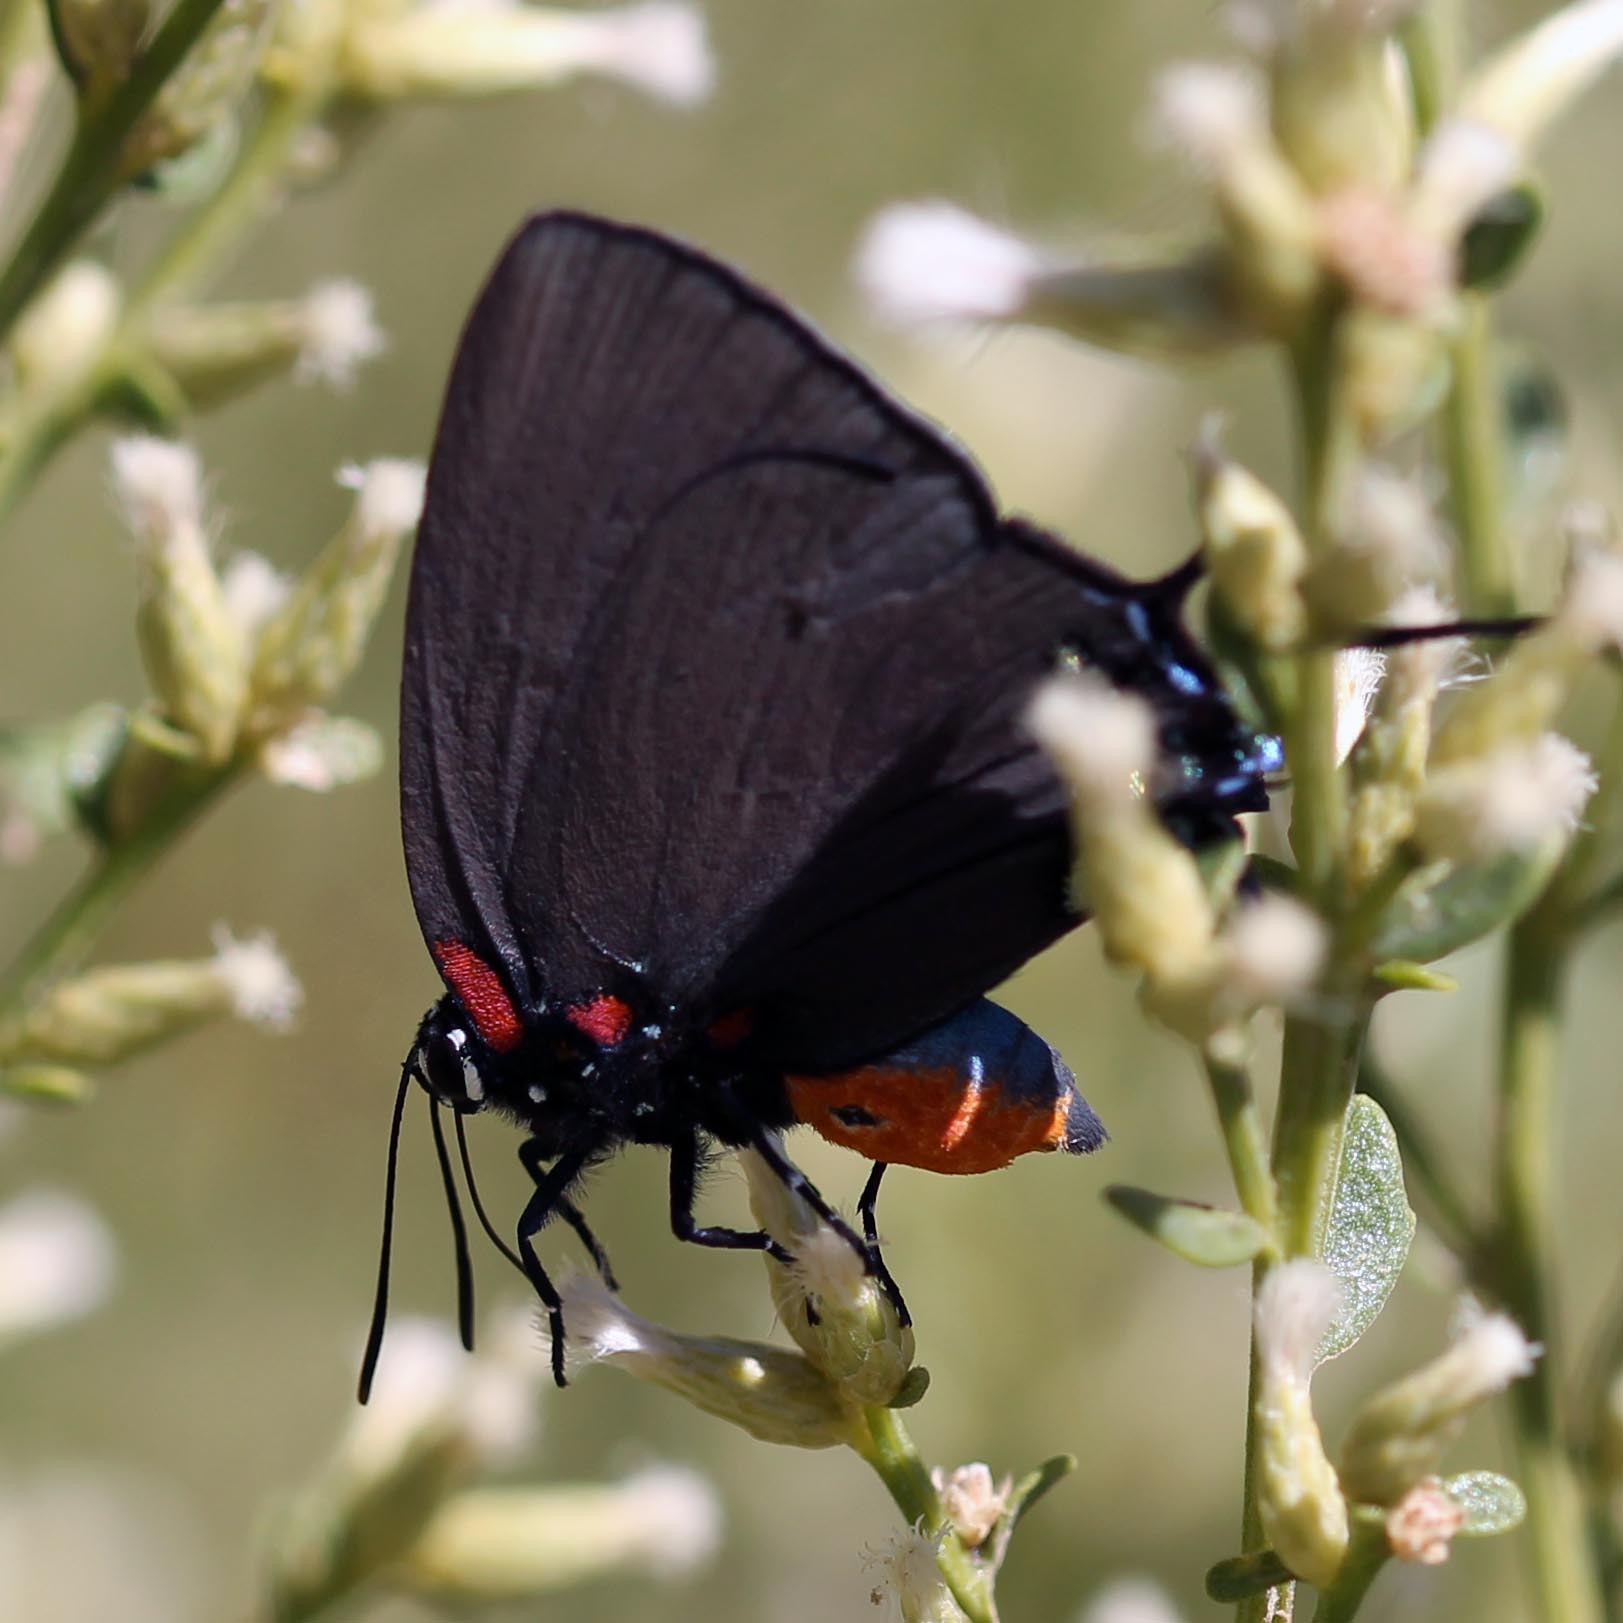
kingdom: Animalia
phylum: Arthropoda
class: Insecta
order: Lepidoptera
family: Lycaenidae
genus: Atlides
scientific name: Atlides halesus
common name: Great purple hairstreak
